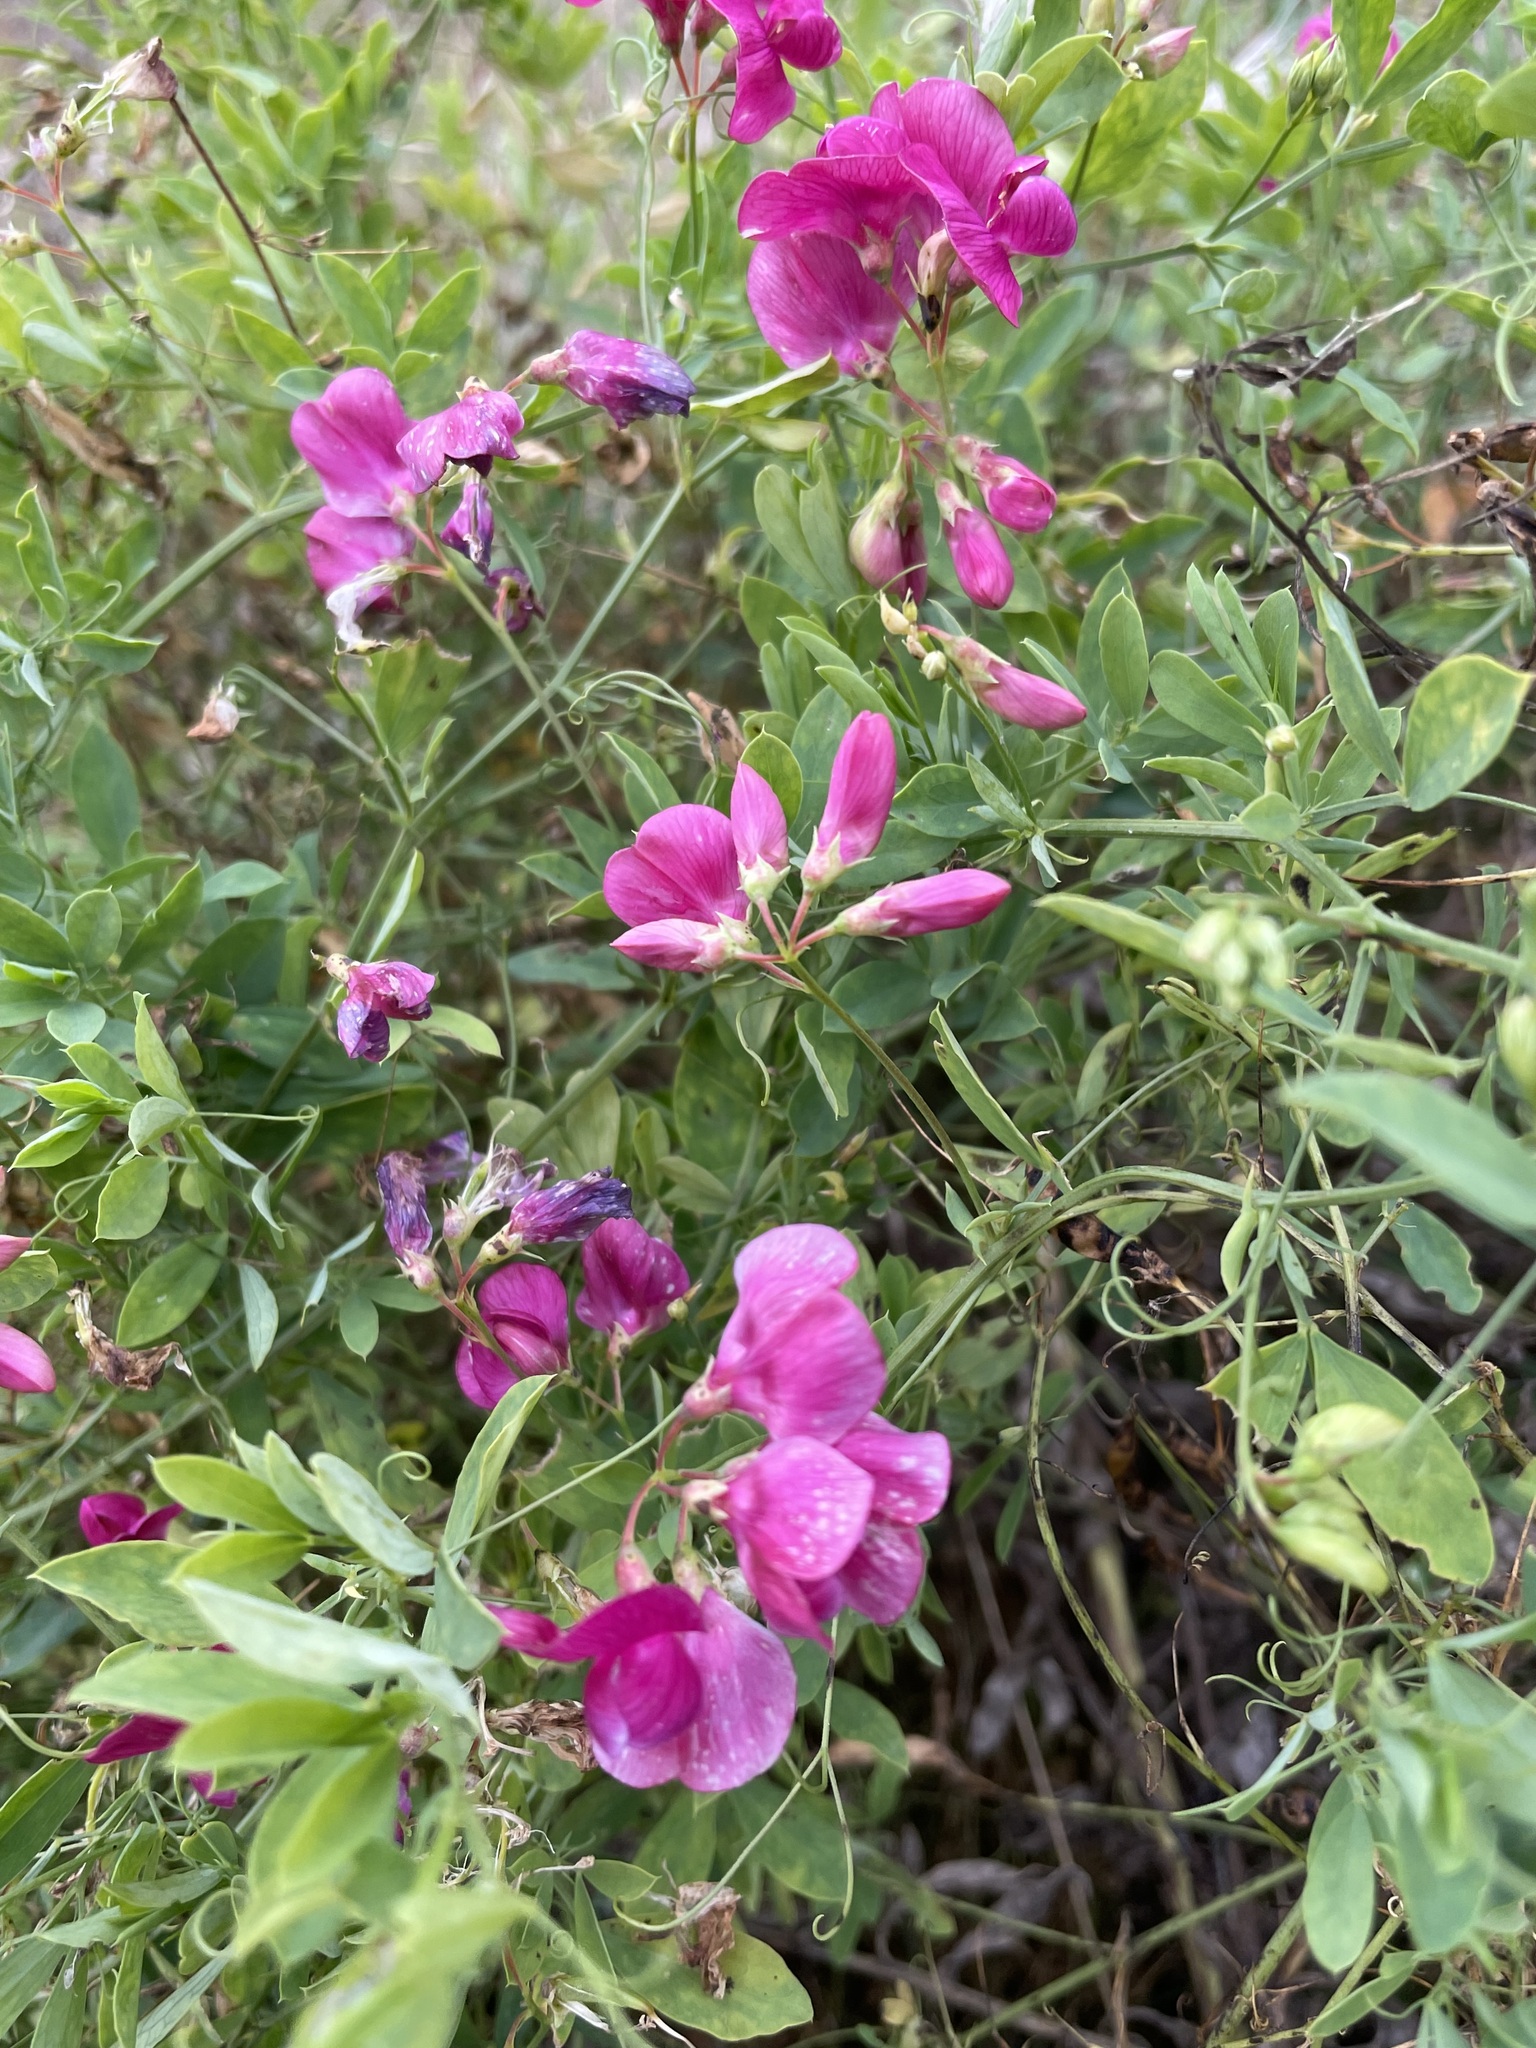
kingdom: Plantae
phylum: Tracheophyta
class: Magnoliopsida
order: Fabales
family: Fabaceae
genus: Lathyrus
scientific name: Lathyrus tuberosus
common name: Tuberous pea
